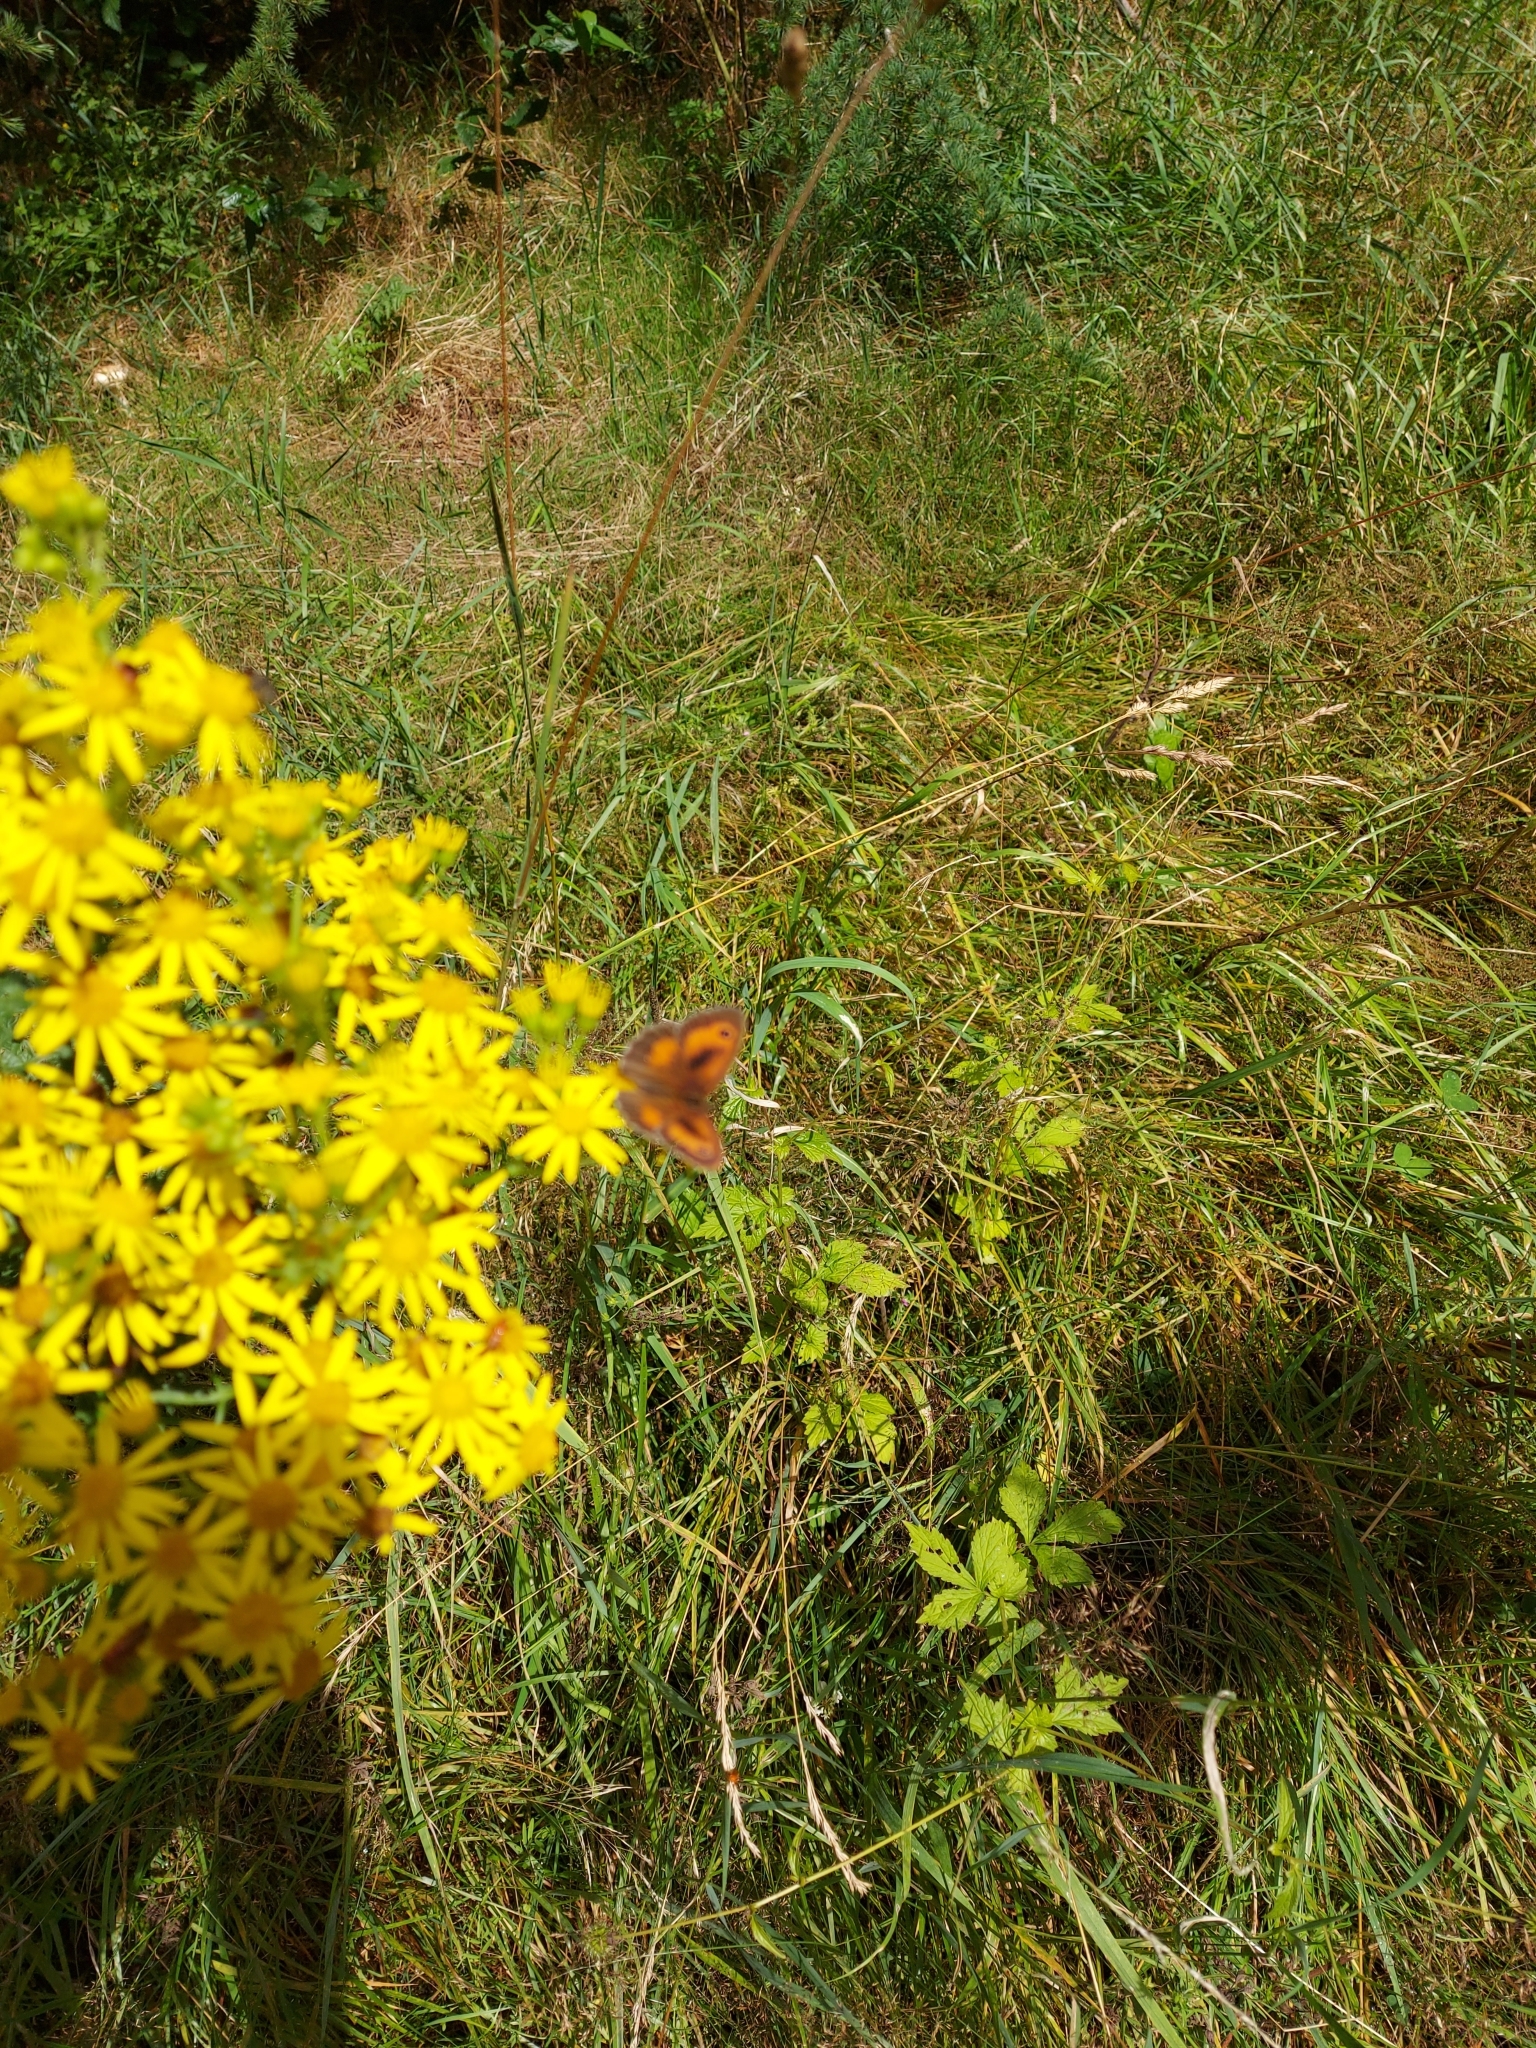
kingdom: Animalia
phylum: Arthropoda
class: Insecta
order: Lepidoptera
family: Nymphalidae
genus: Pyronia
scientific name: Pyronia tithonus
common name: Gatekeeper
